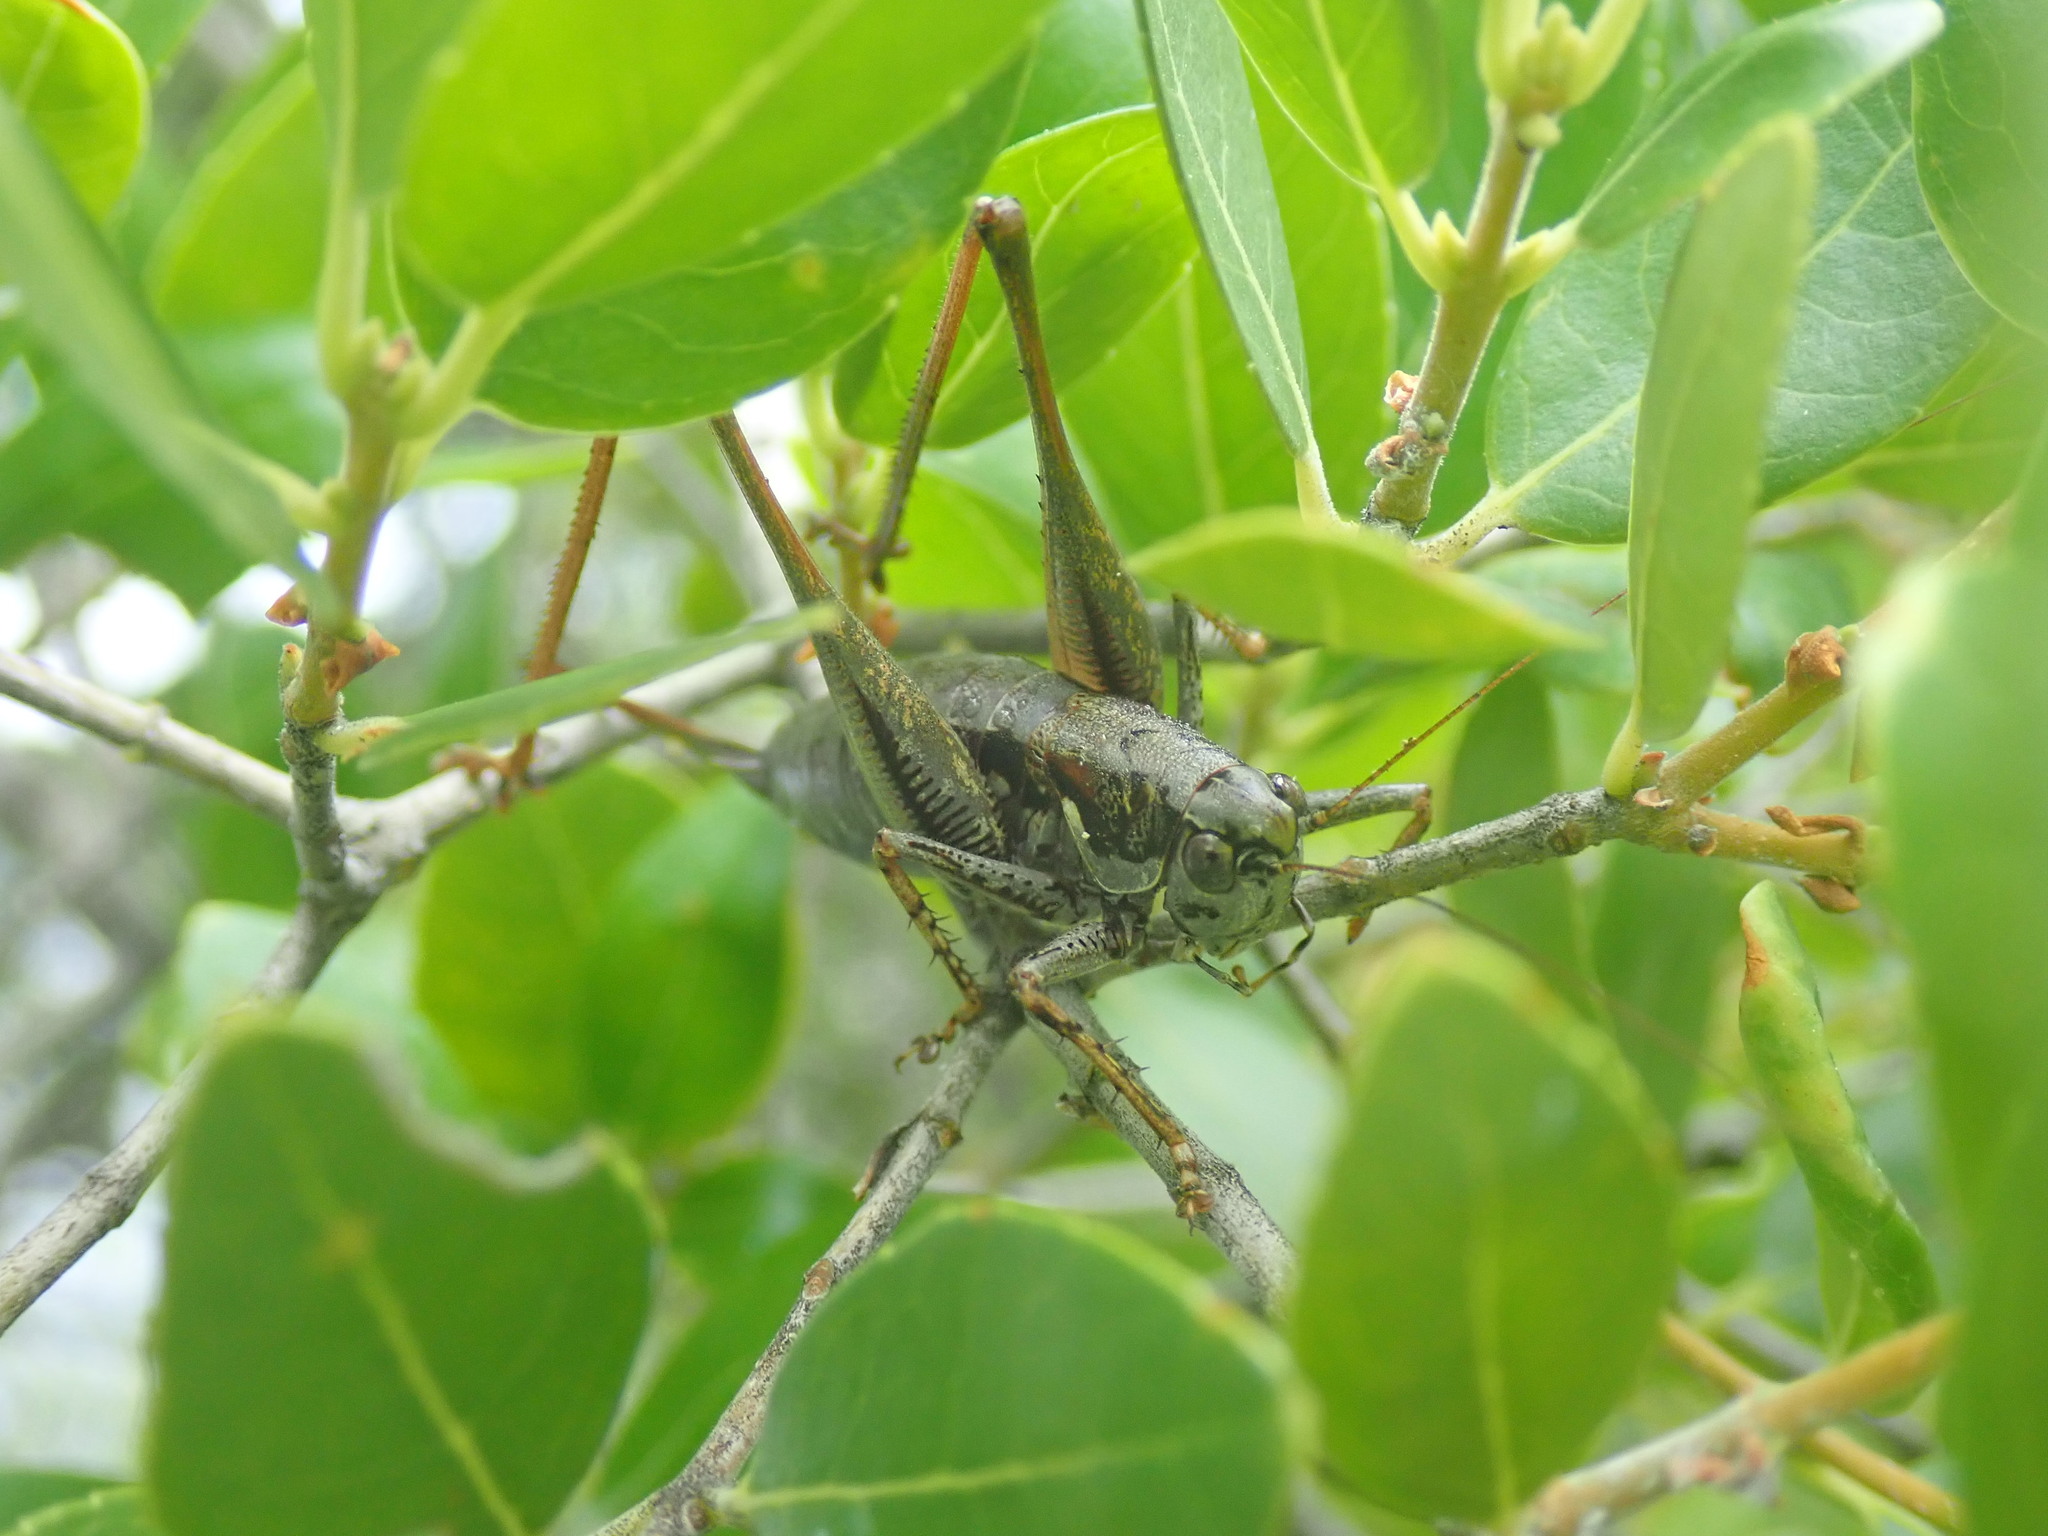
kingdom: Animalia
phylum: Arthropoda
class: Insecta
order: Orthoptera
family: Tettigoniidae
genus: Pachytrachis
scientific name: Pachytrachis frater
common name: Monk bush-cricket
